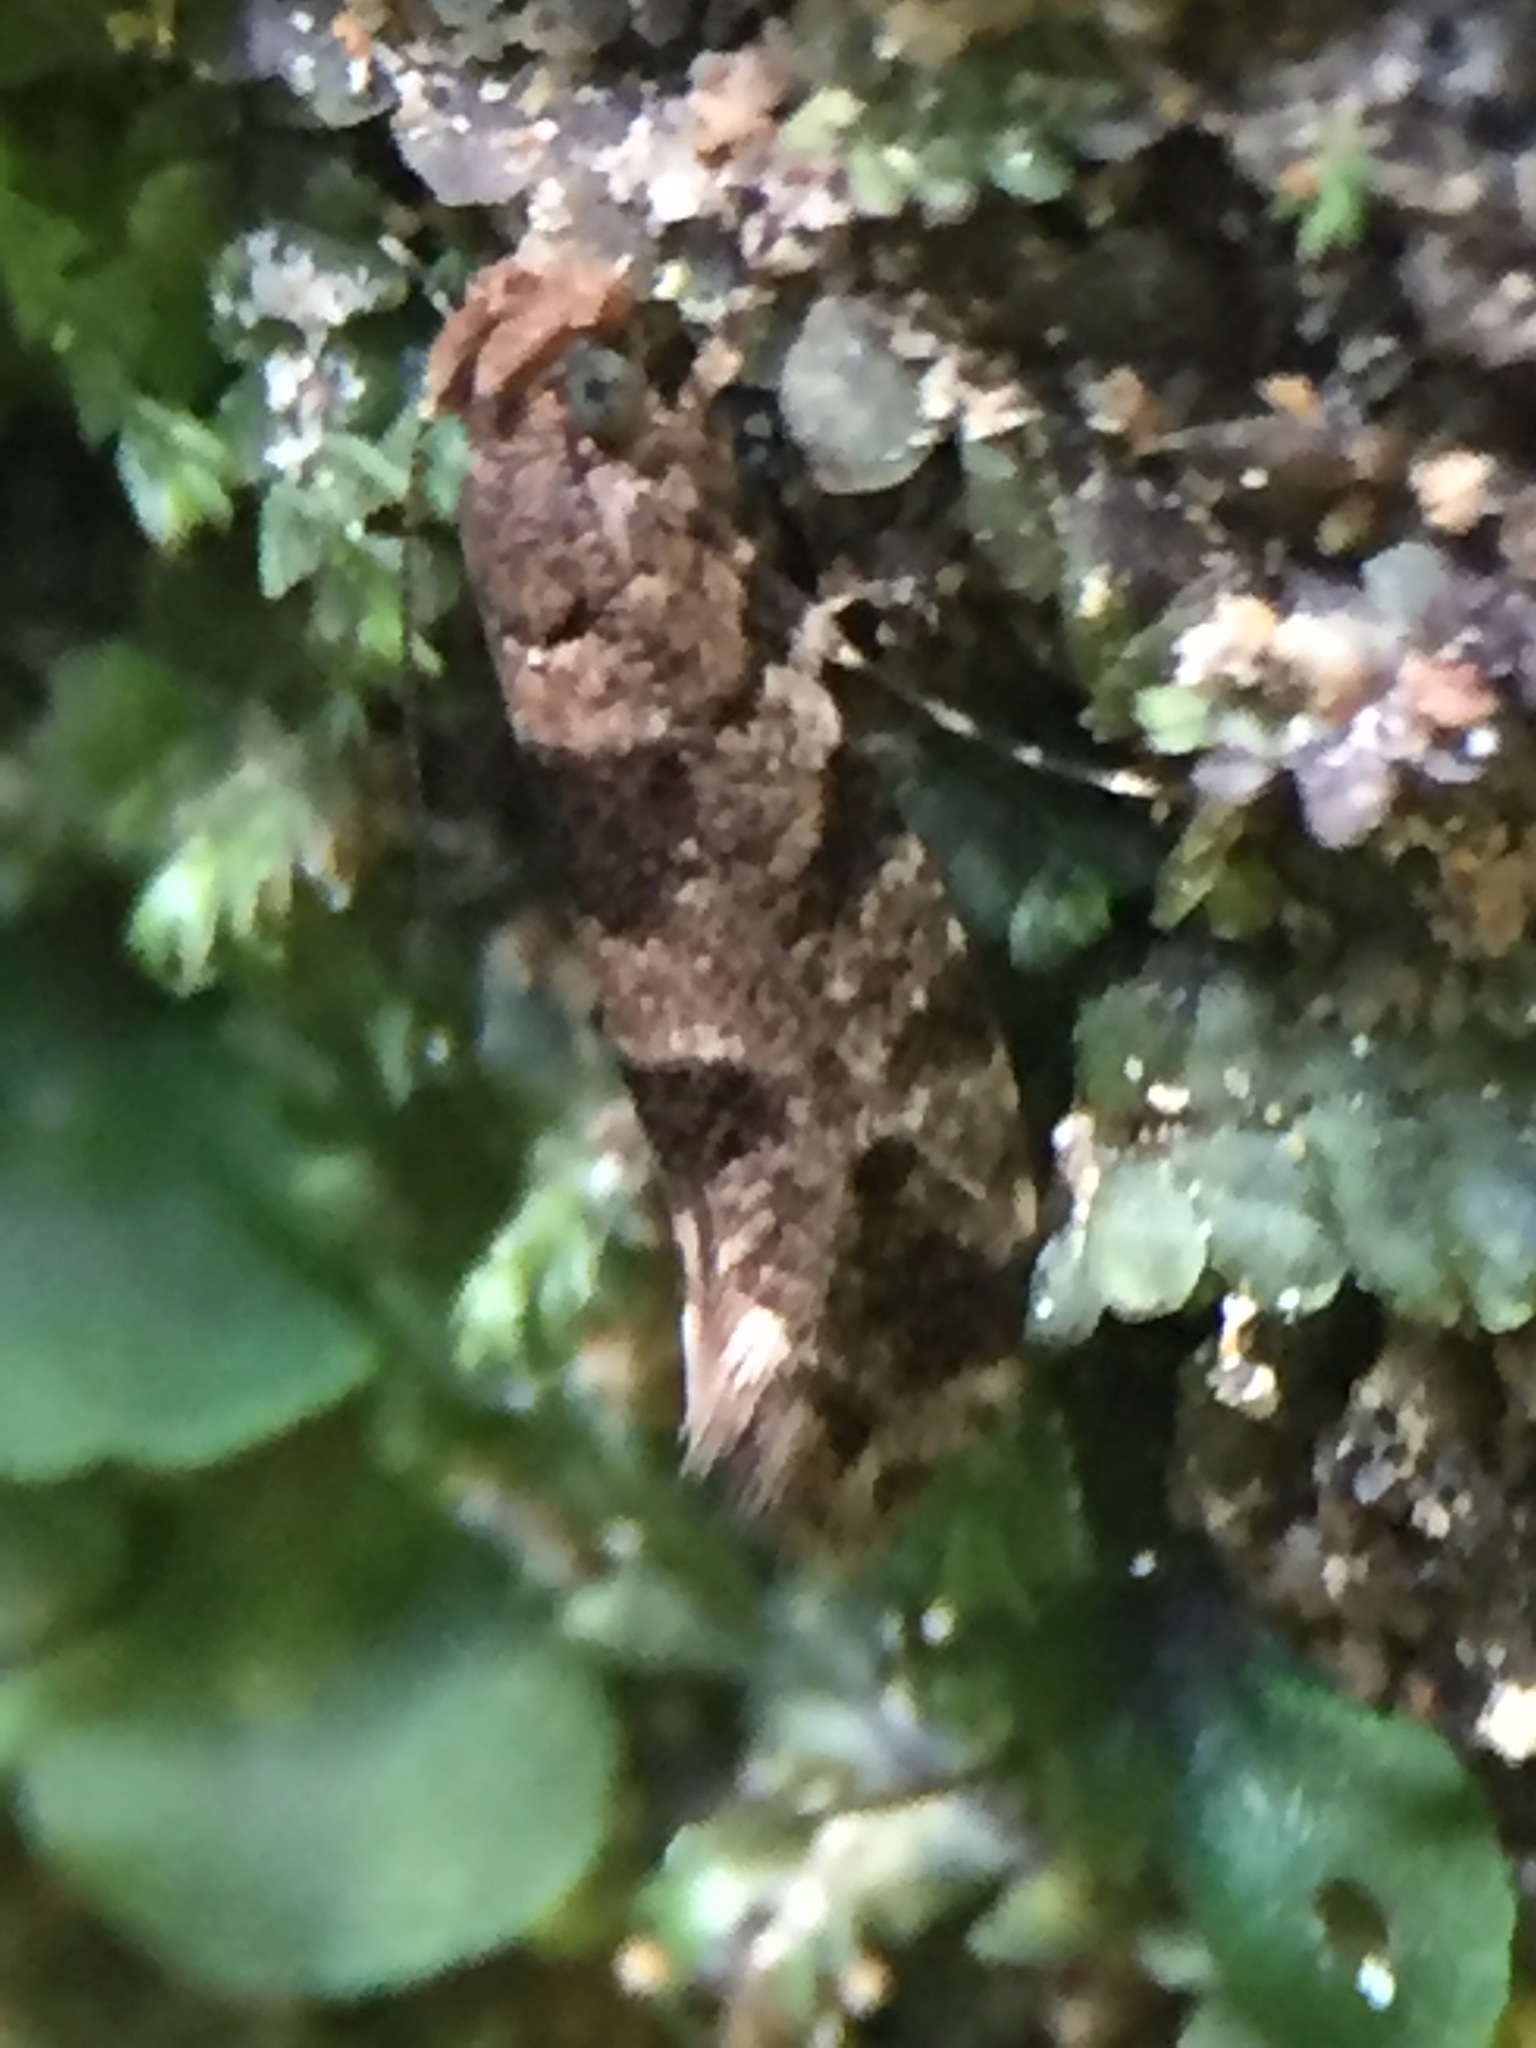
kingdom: Animalia
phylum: Arthropoda
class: Insecta
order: Lepidoptera
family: Tineidae
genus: Parochmastis
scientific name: Parochmastis hilderi
